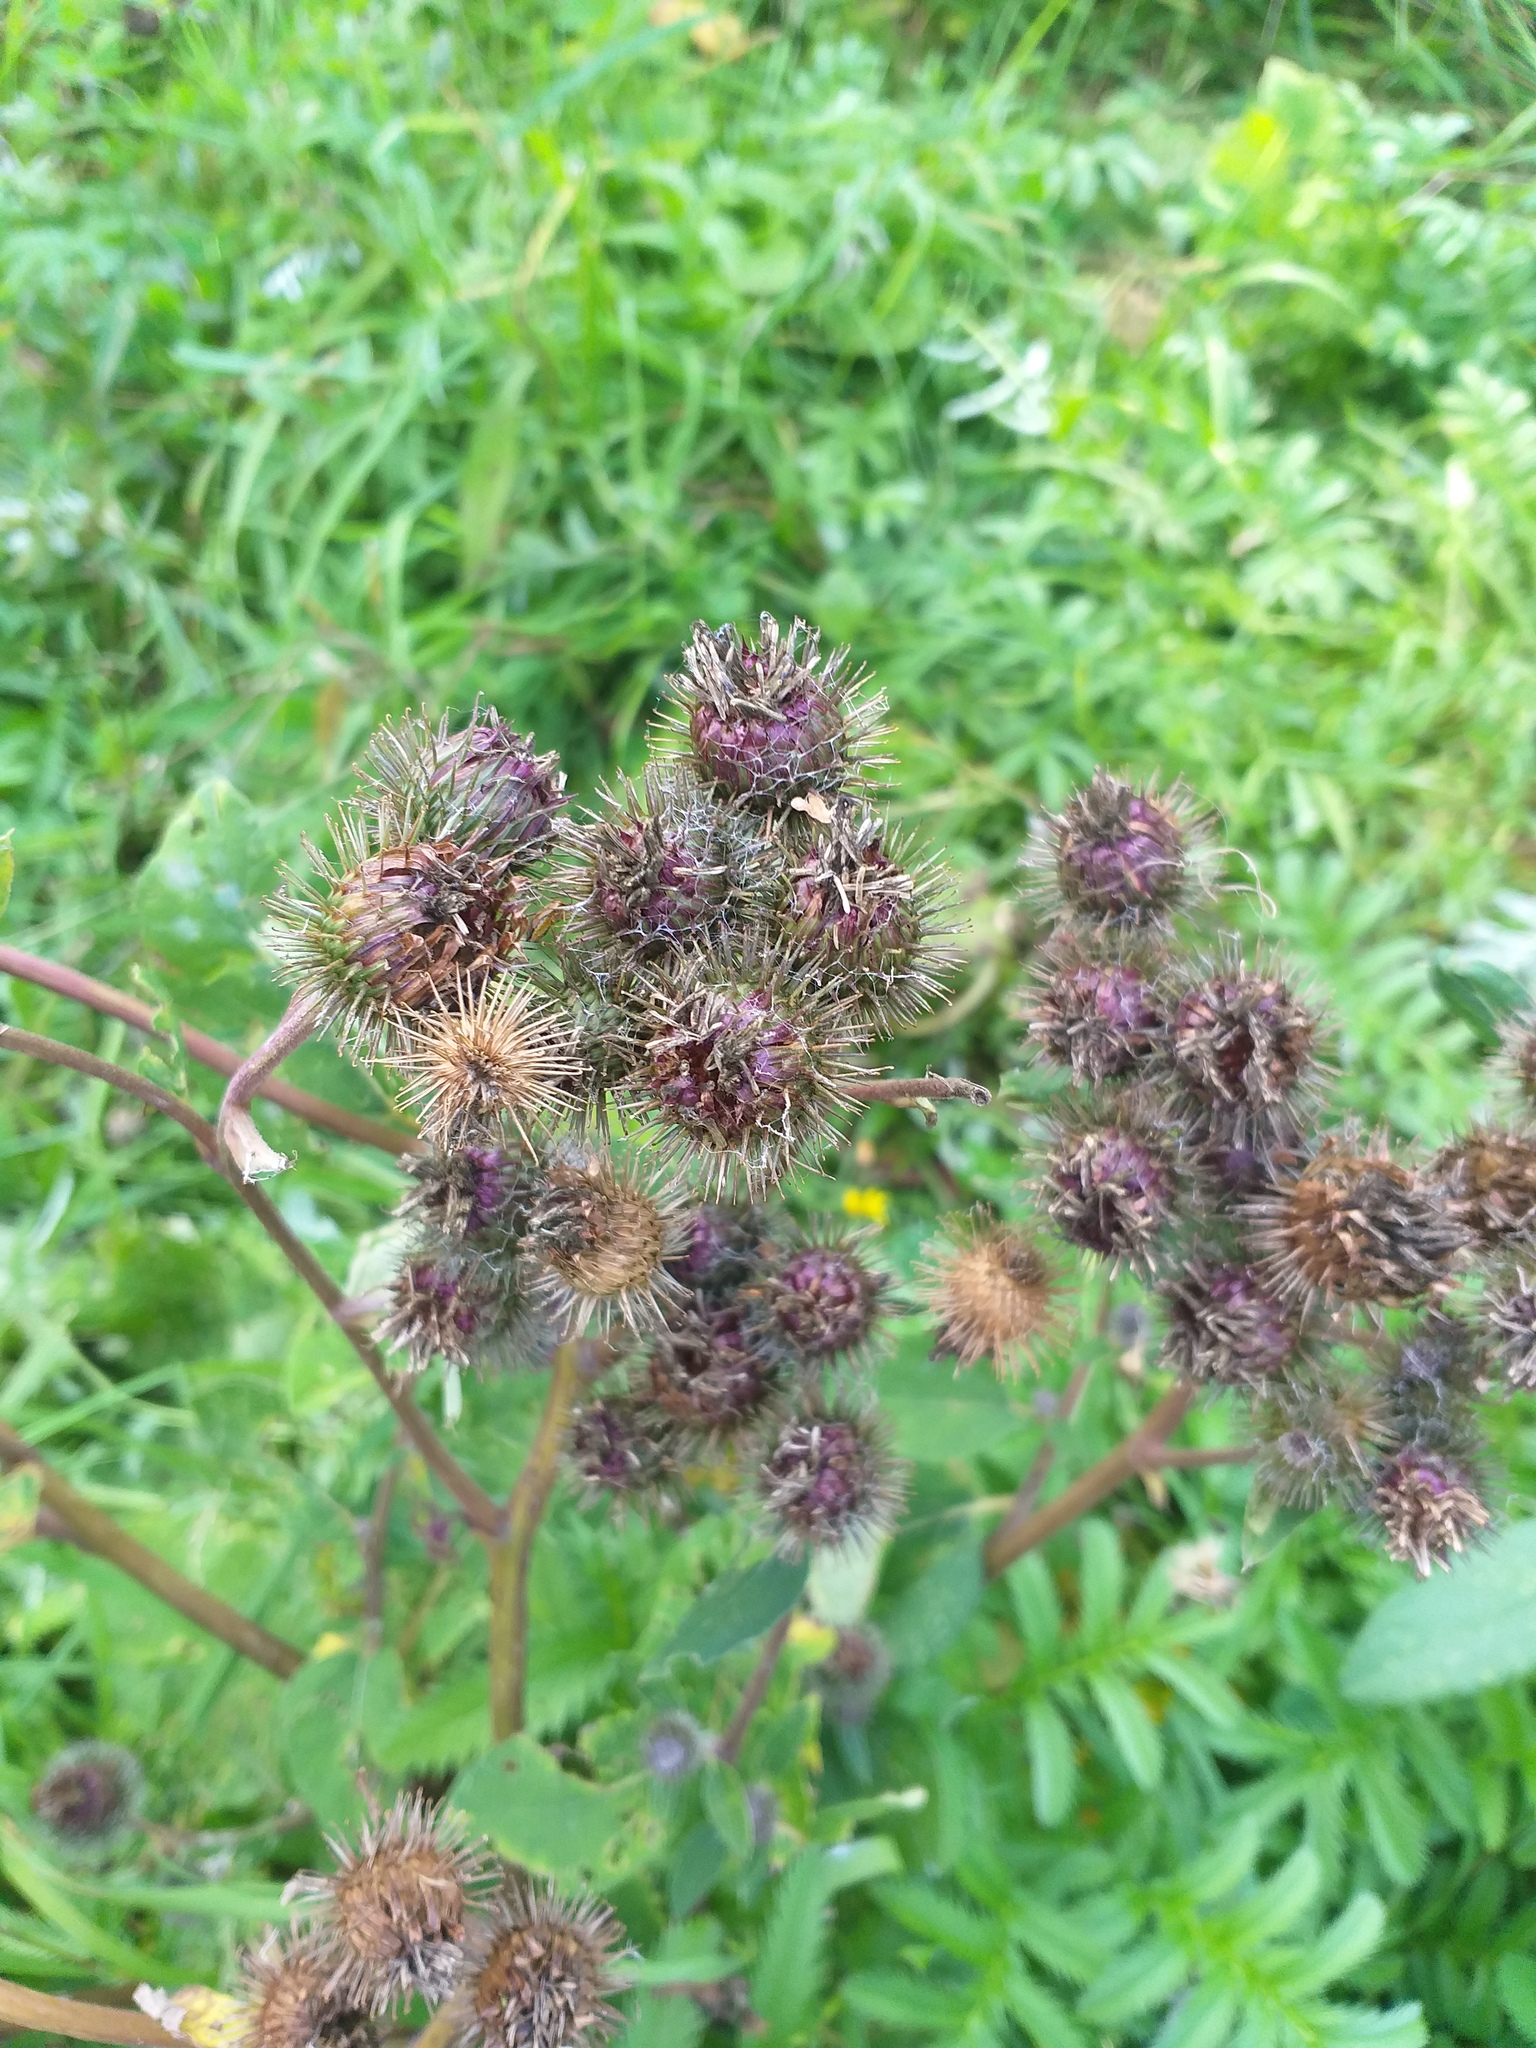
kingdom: Plantae
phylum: Tracheophyta
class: Magnoliopsida
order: Asterales
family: Asteraceae
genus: Arctium
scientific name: Arctium tomentosum
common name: Woolly burdock
